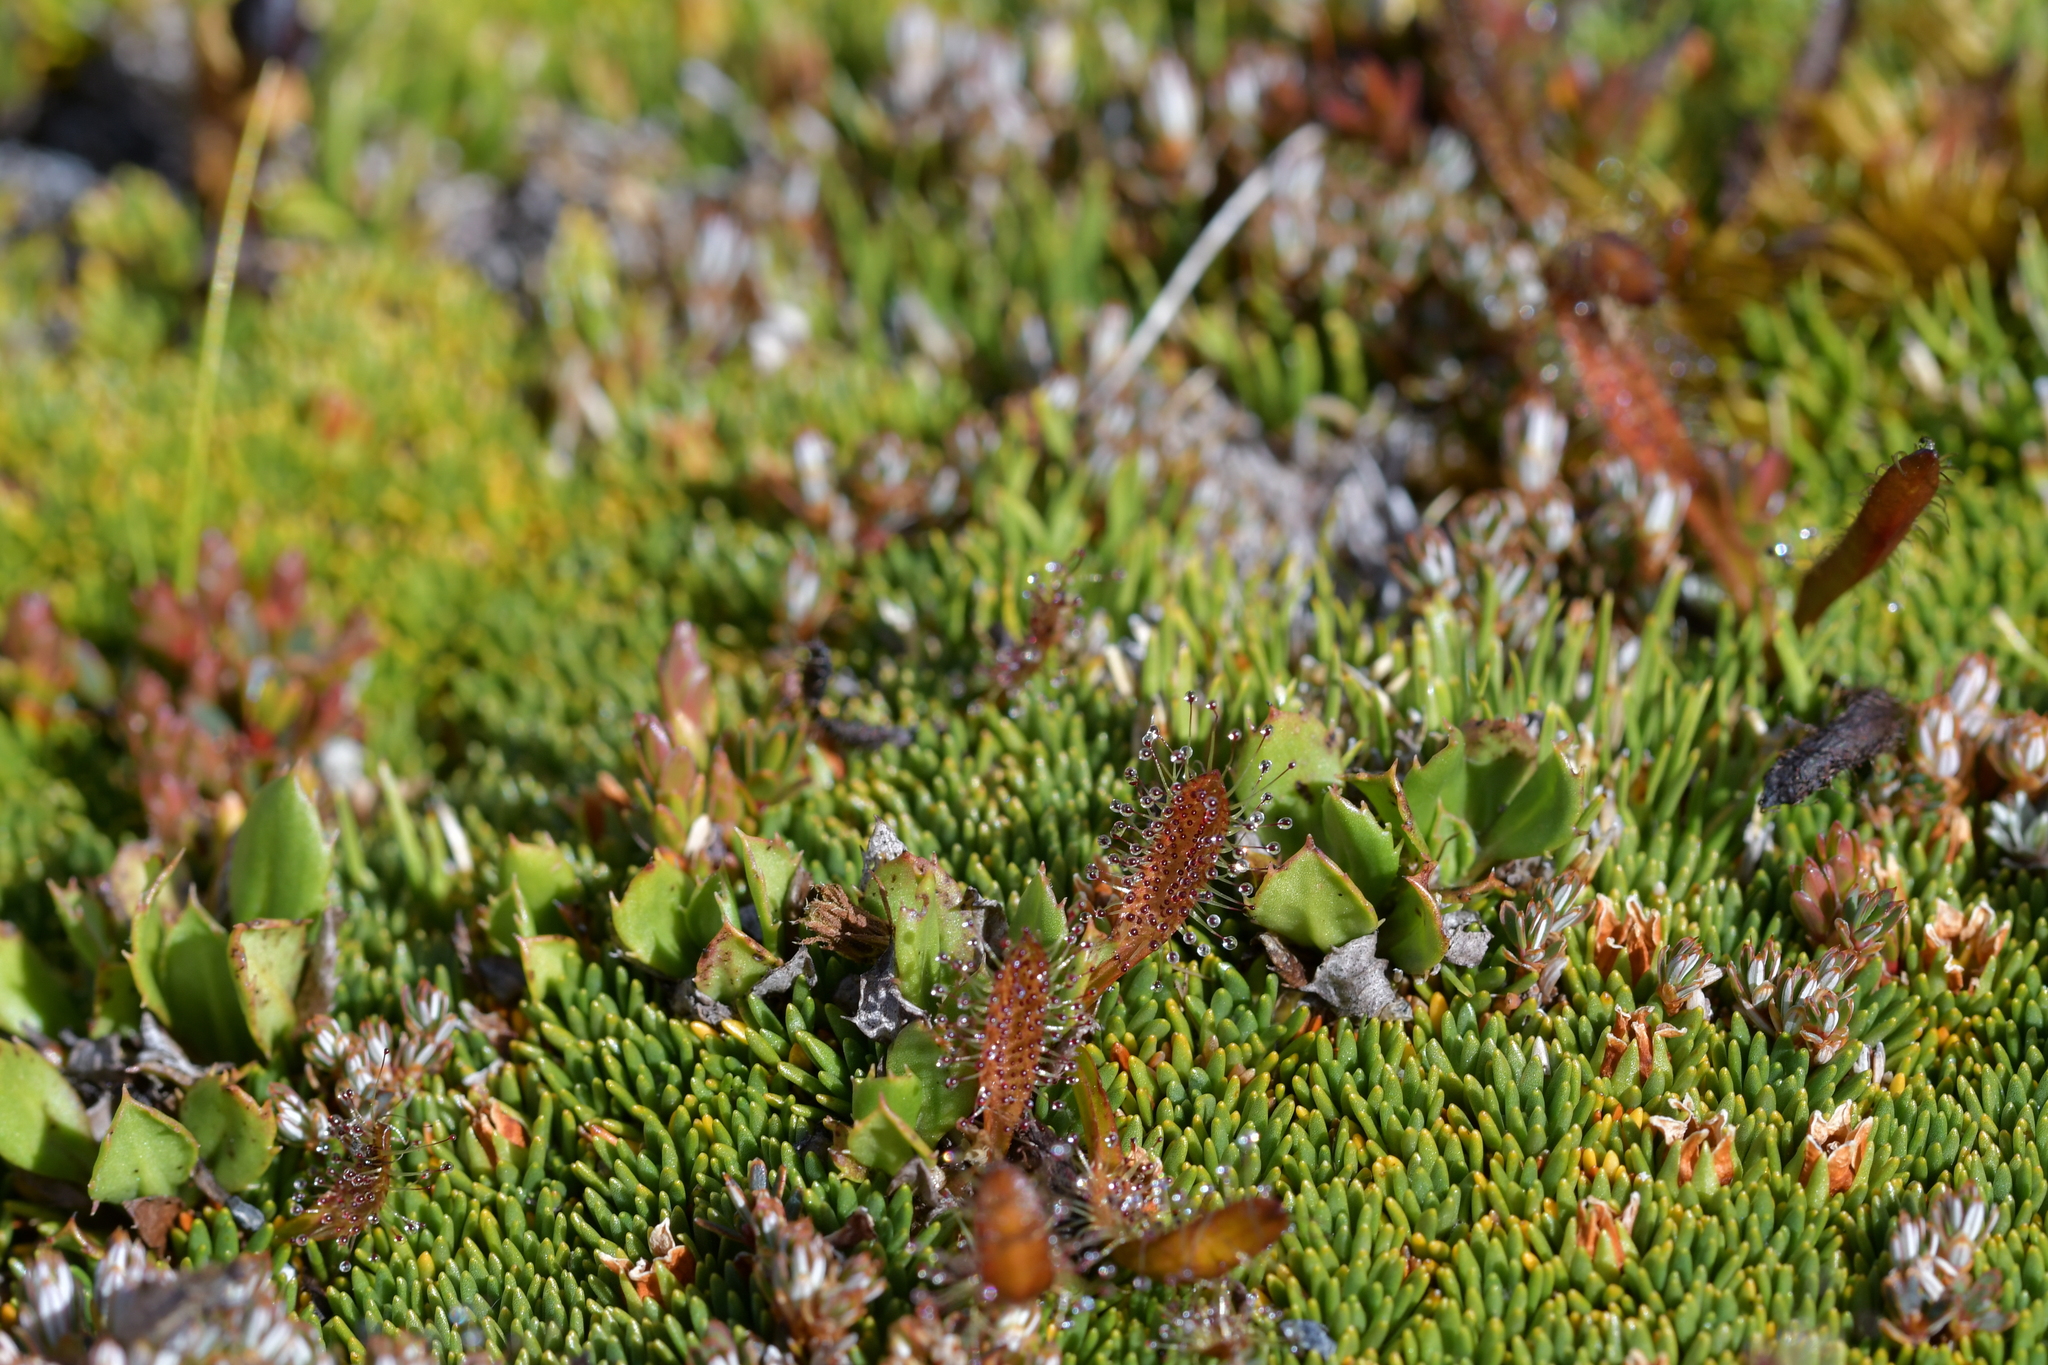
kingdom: Plantae
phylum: Tracheophyta
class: Magnoliopsida
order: Caryophyllales
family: Droseraceae
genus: Drosera
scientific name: Drosera arcturi
